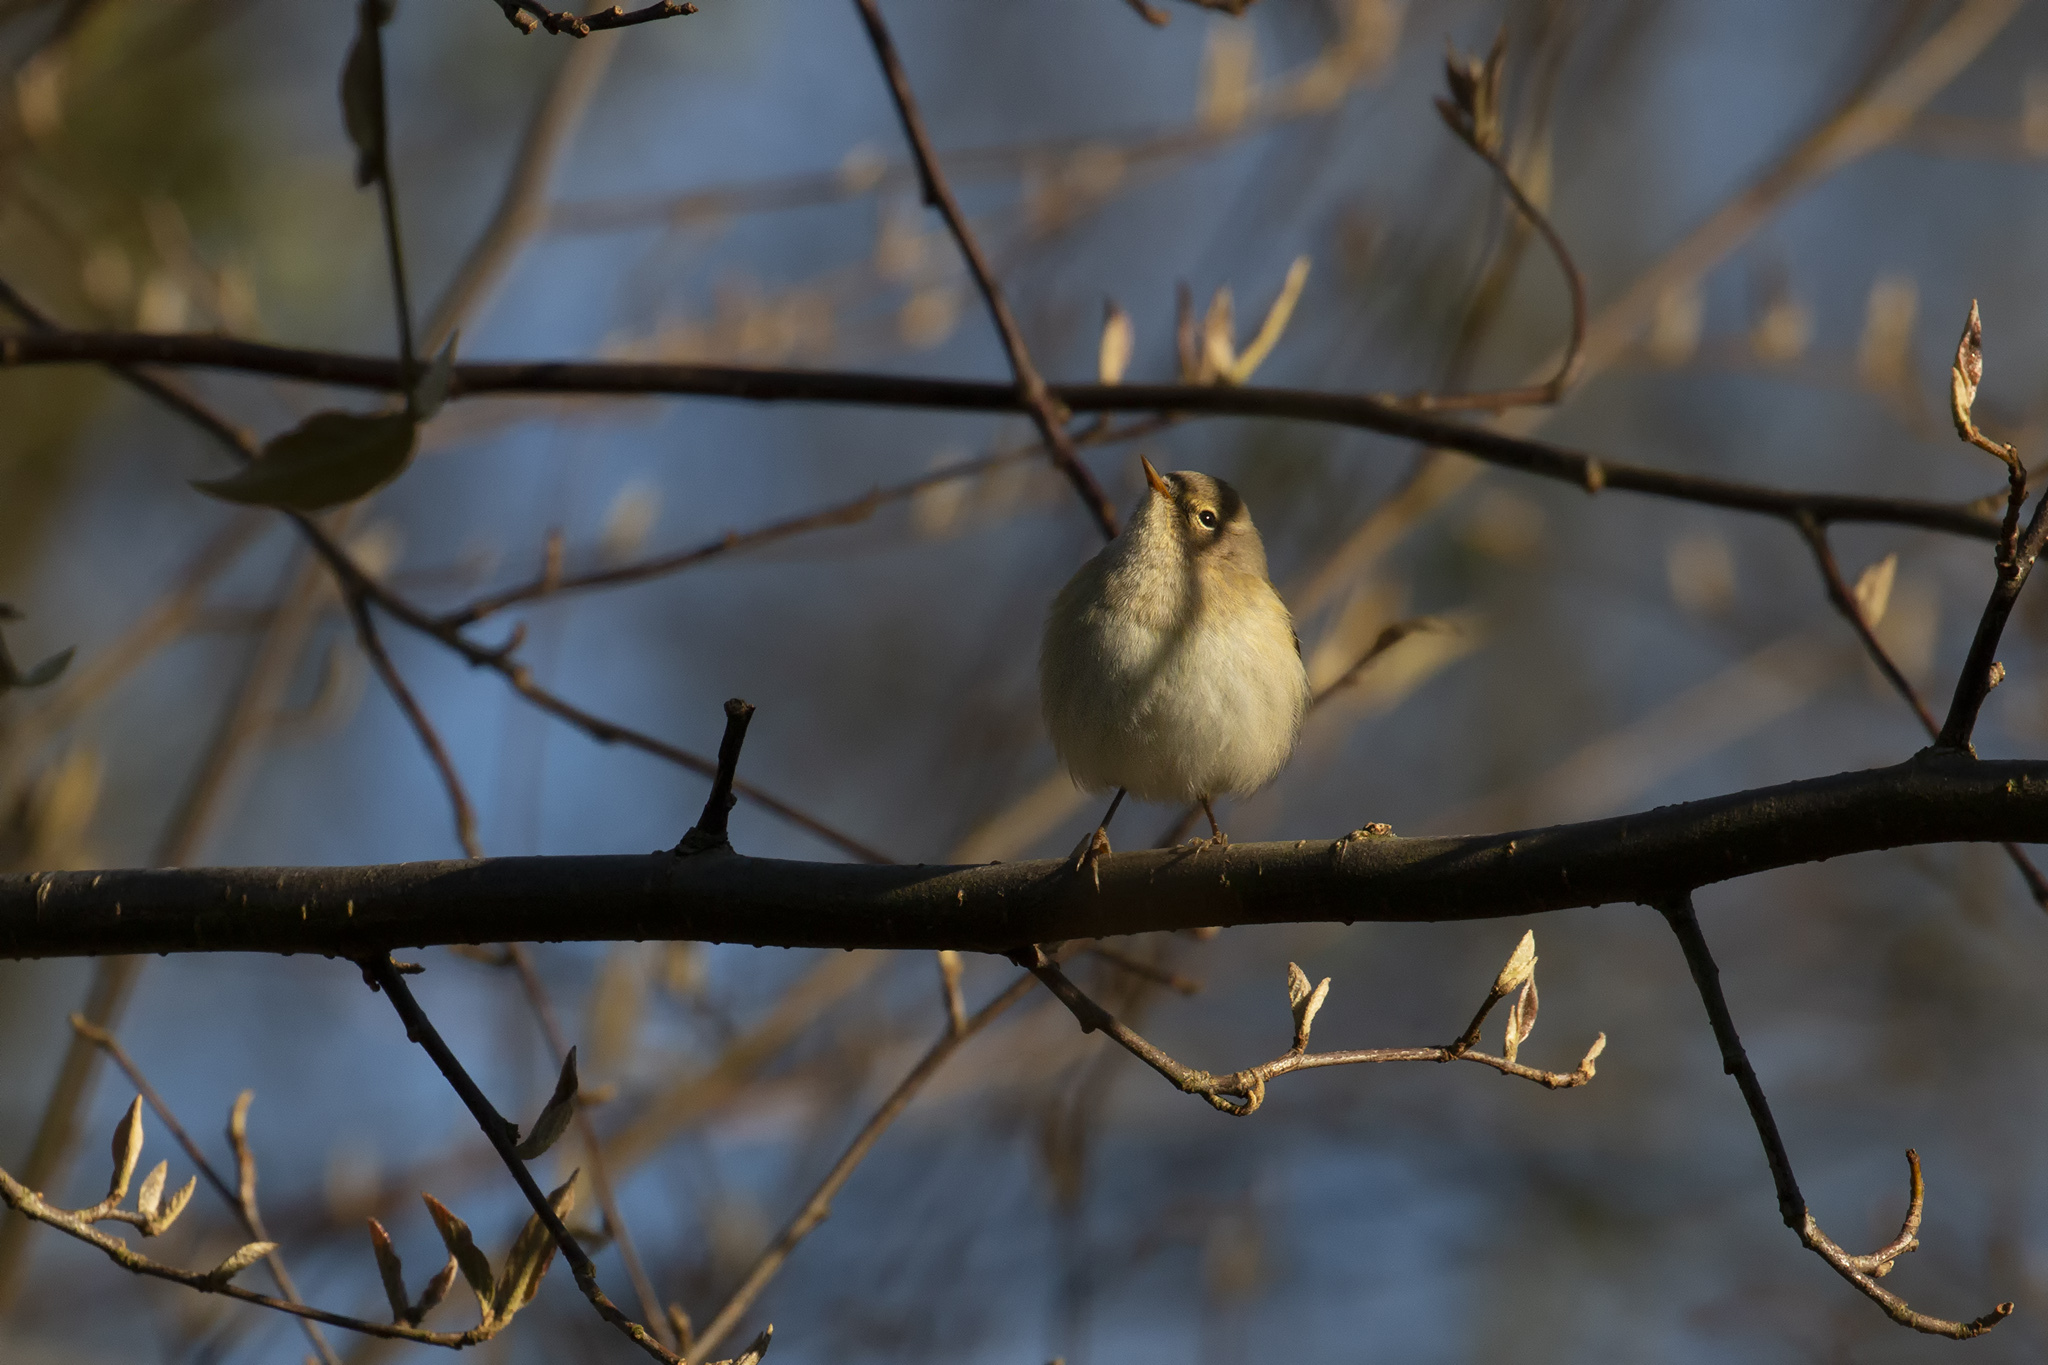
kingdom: Animalia
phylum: Chordata
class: Aves
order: Passeriformes
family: Phylloscopidae
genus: Phylloscopus
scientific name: Phylloscopus collybita
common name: Common chiffchaff
